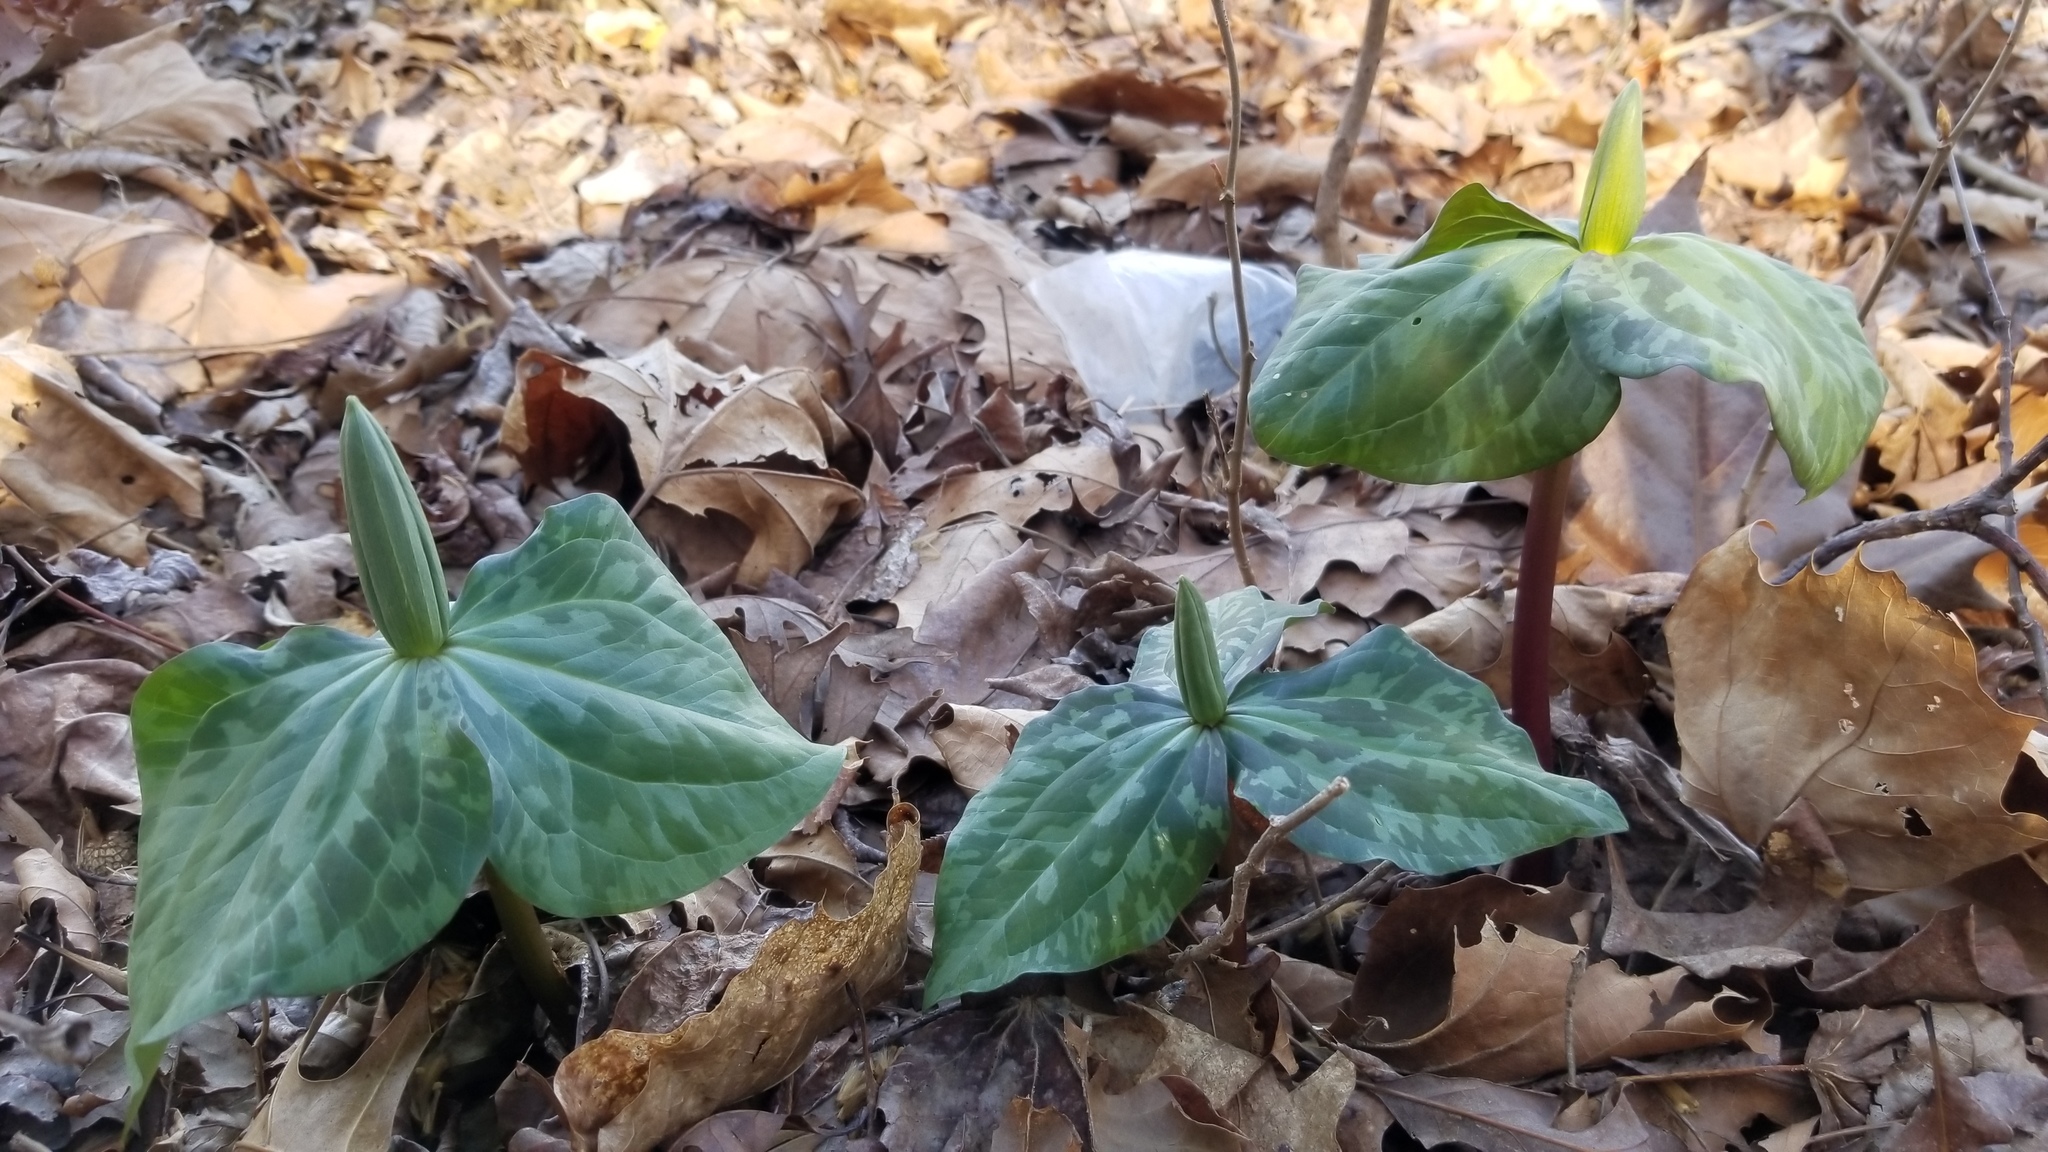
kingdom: Plantae
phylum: Tracheophyta
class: Liliopsida
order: Liliales
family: Melanthiaceae
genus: Trillium
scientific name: Trillium cuneatum
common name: Cuneate trillium
